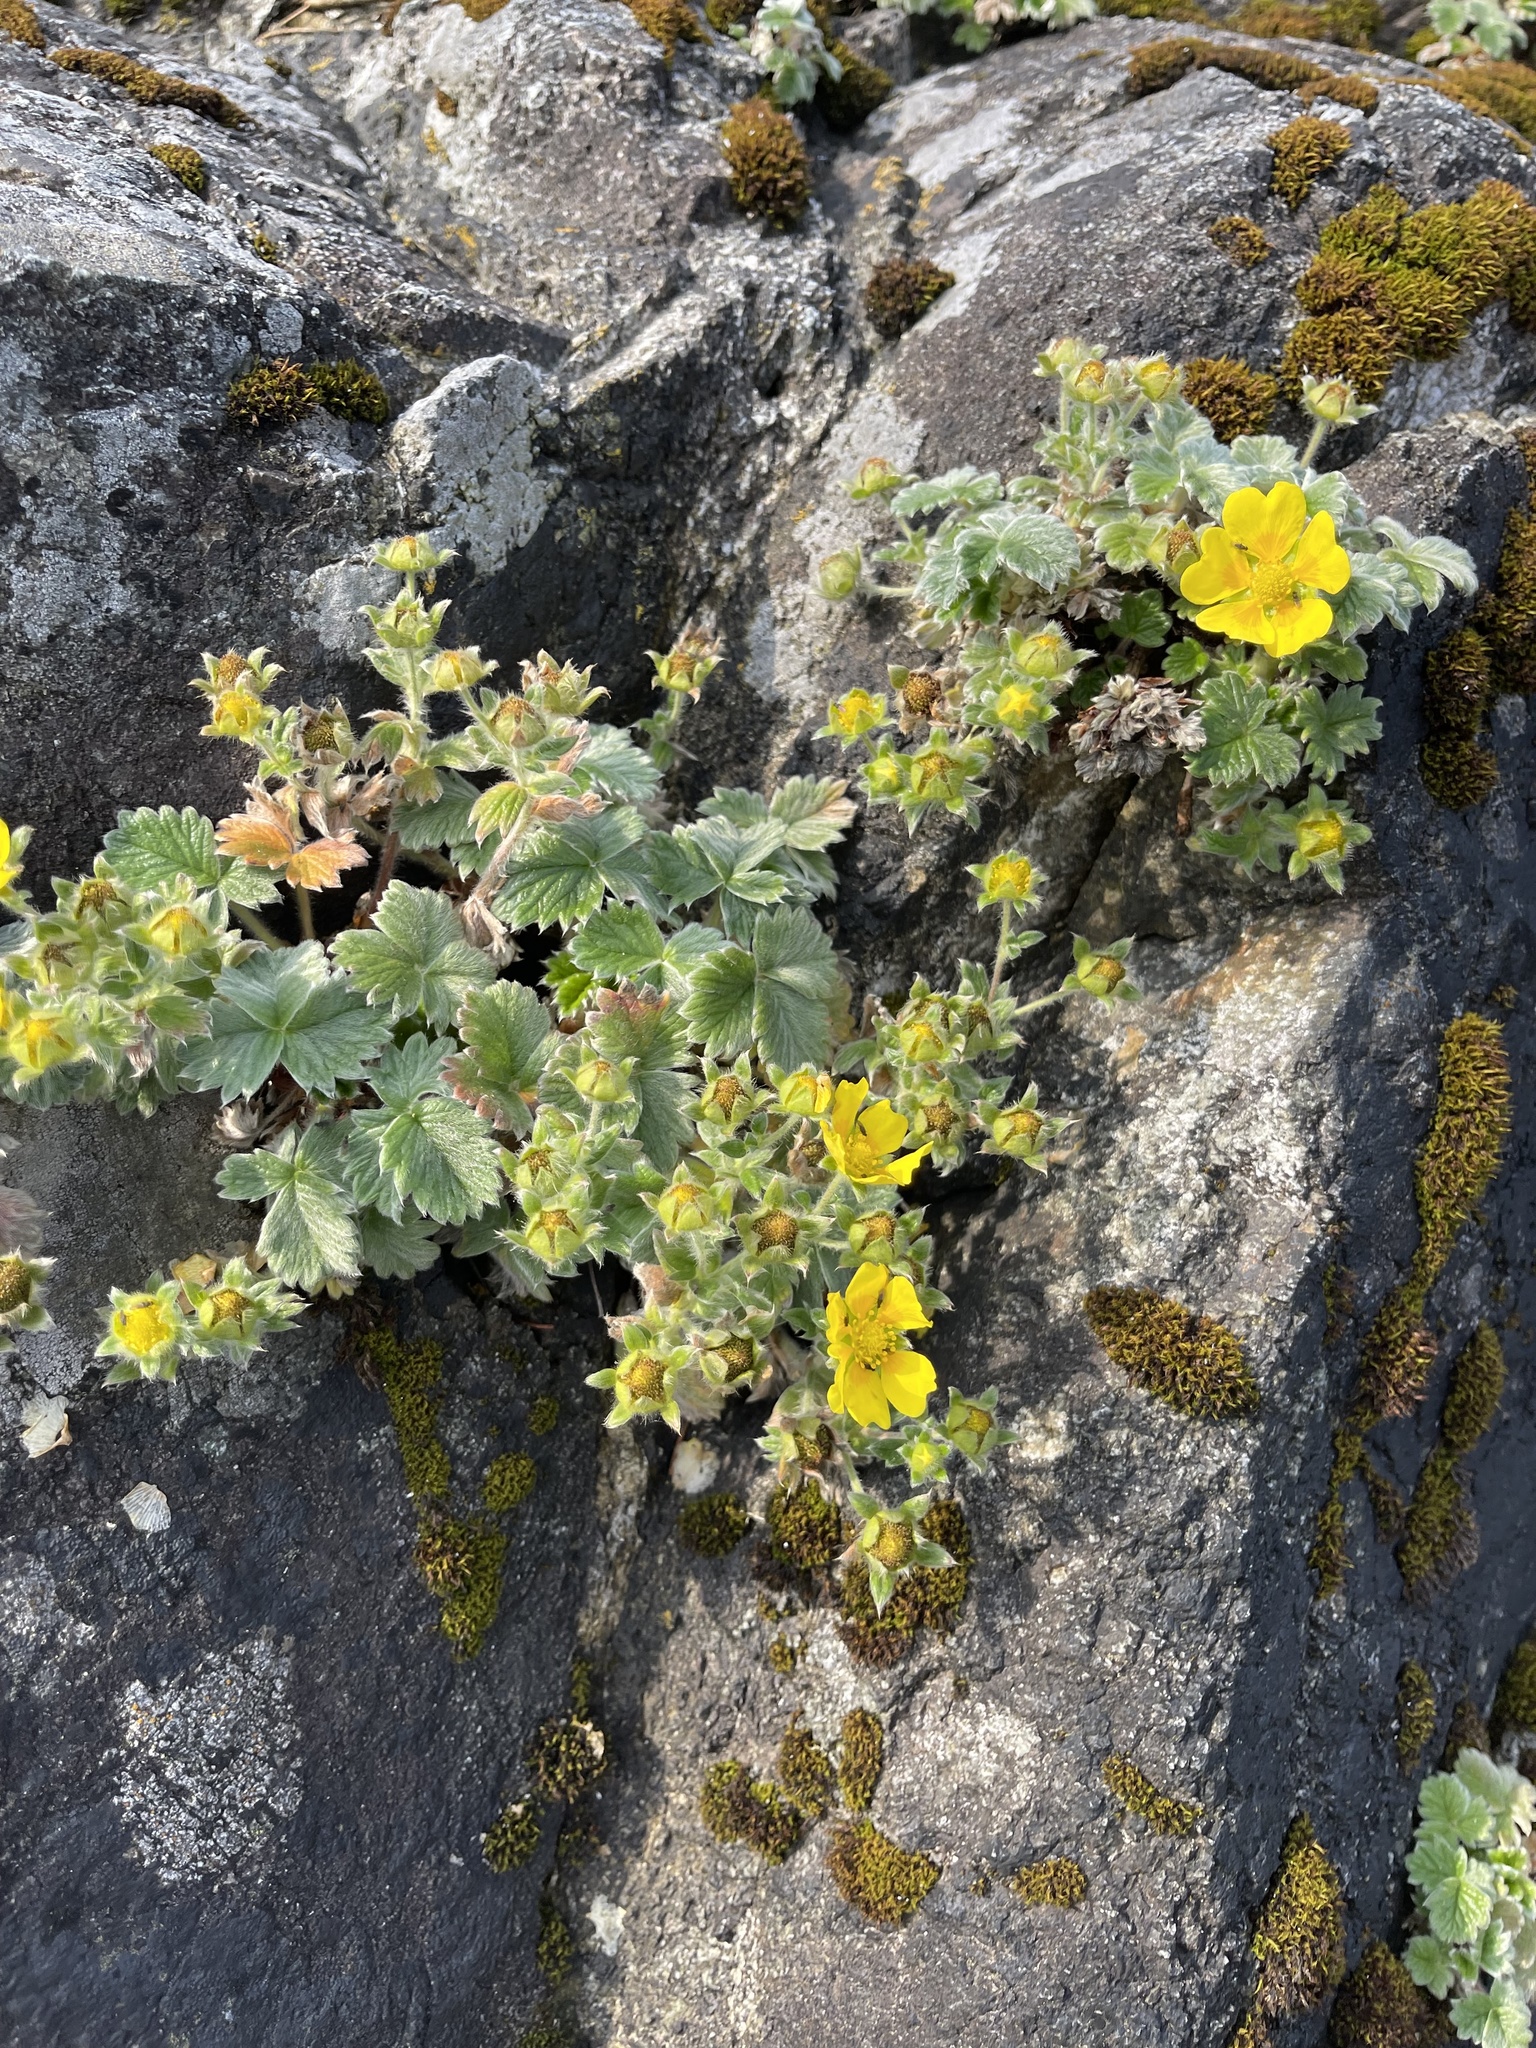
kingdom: Plantae
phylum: Tracheophyta
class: Magnoliopsida
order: Rosales
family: Rosaceae
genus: Potentilla
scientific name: Potentilla villosa
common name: Northern cinquefoil
